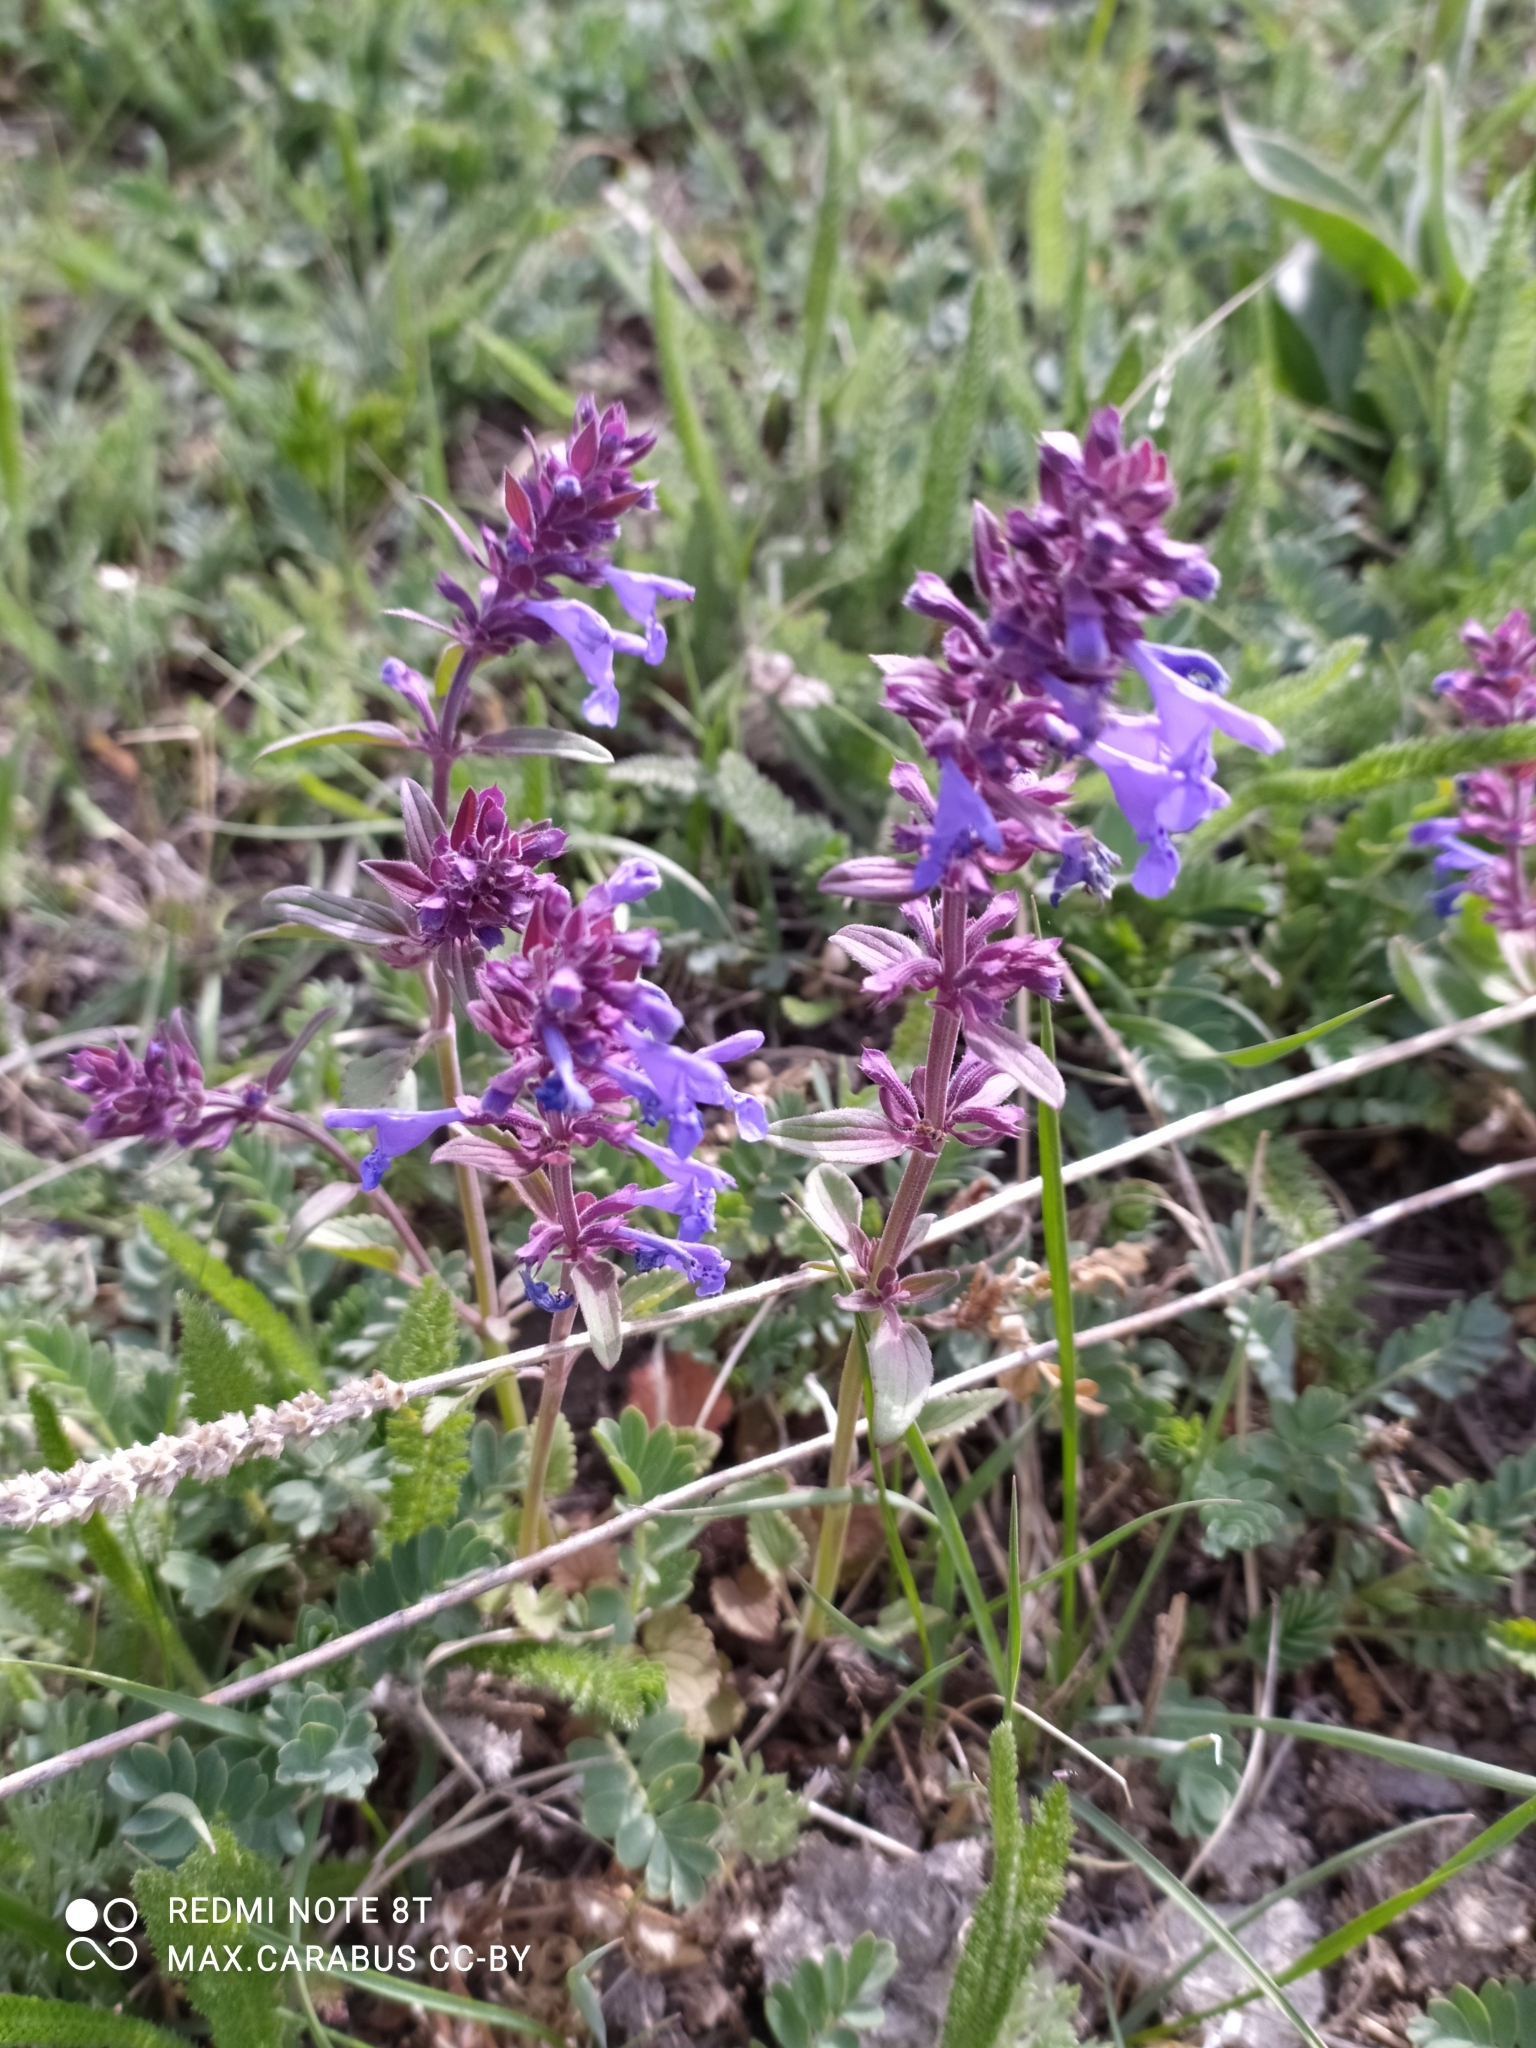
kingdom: Plantae
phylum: Tracheophyta
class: Magnoliopsida
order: Lamiales
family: Lamiaceae
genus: Dracocephalum
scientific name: Dracocephalum nutans
